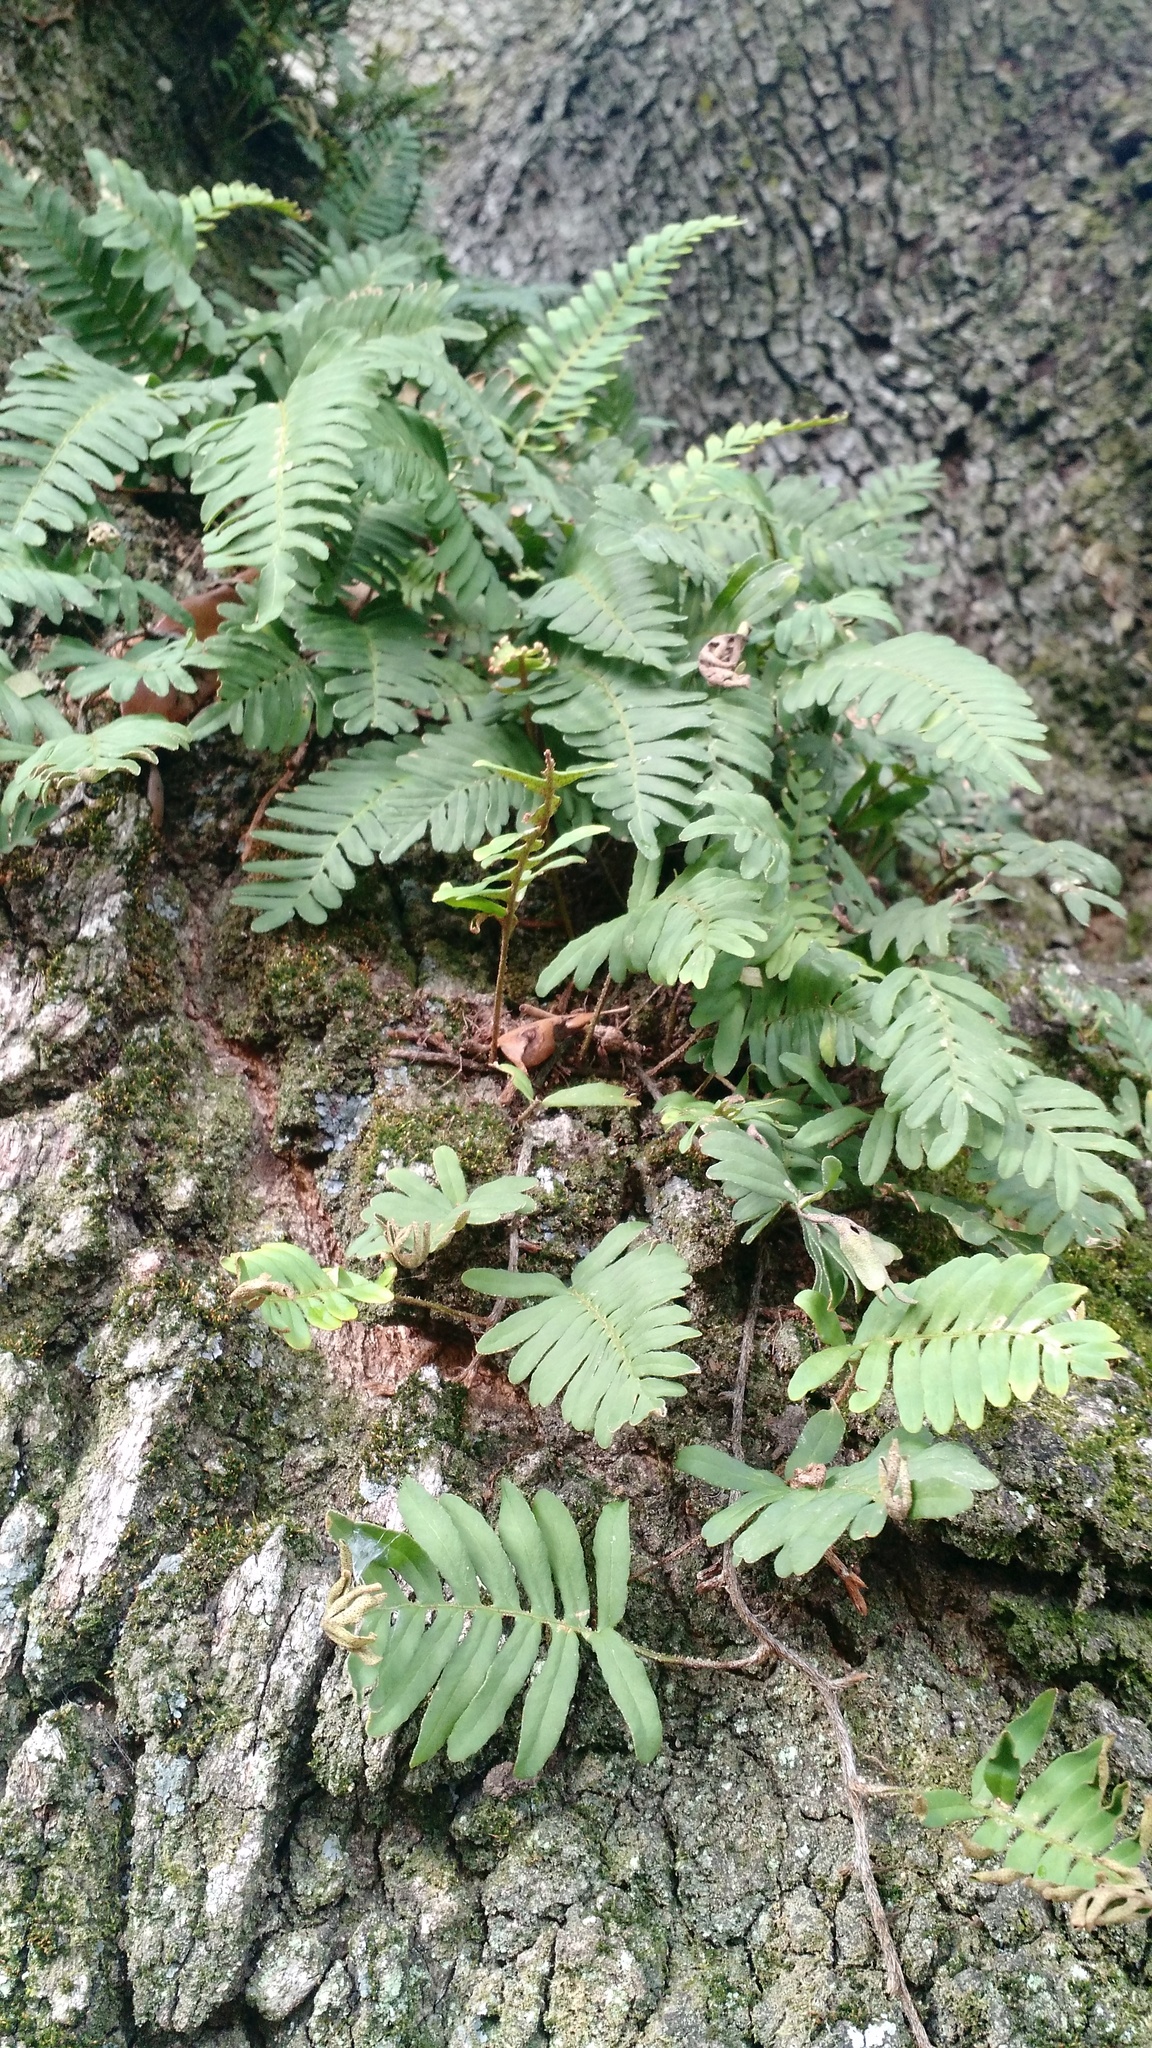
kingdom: Plantae
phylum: Tracheophyta
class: Polypodiopsida
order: Polypodiales
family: Polypodiaceae
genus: Pleopeltis
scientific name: Pleopeltis michauxiana
